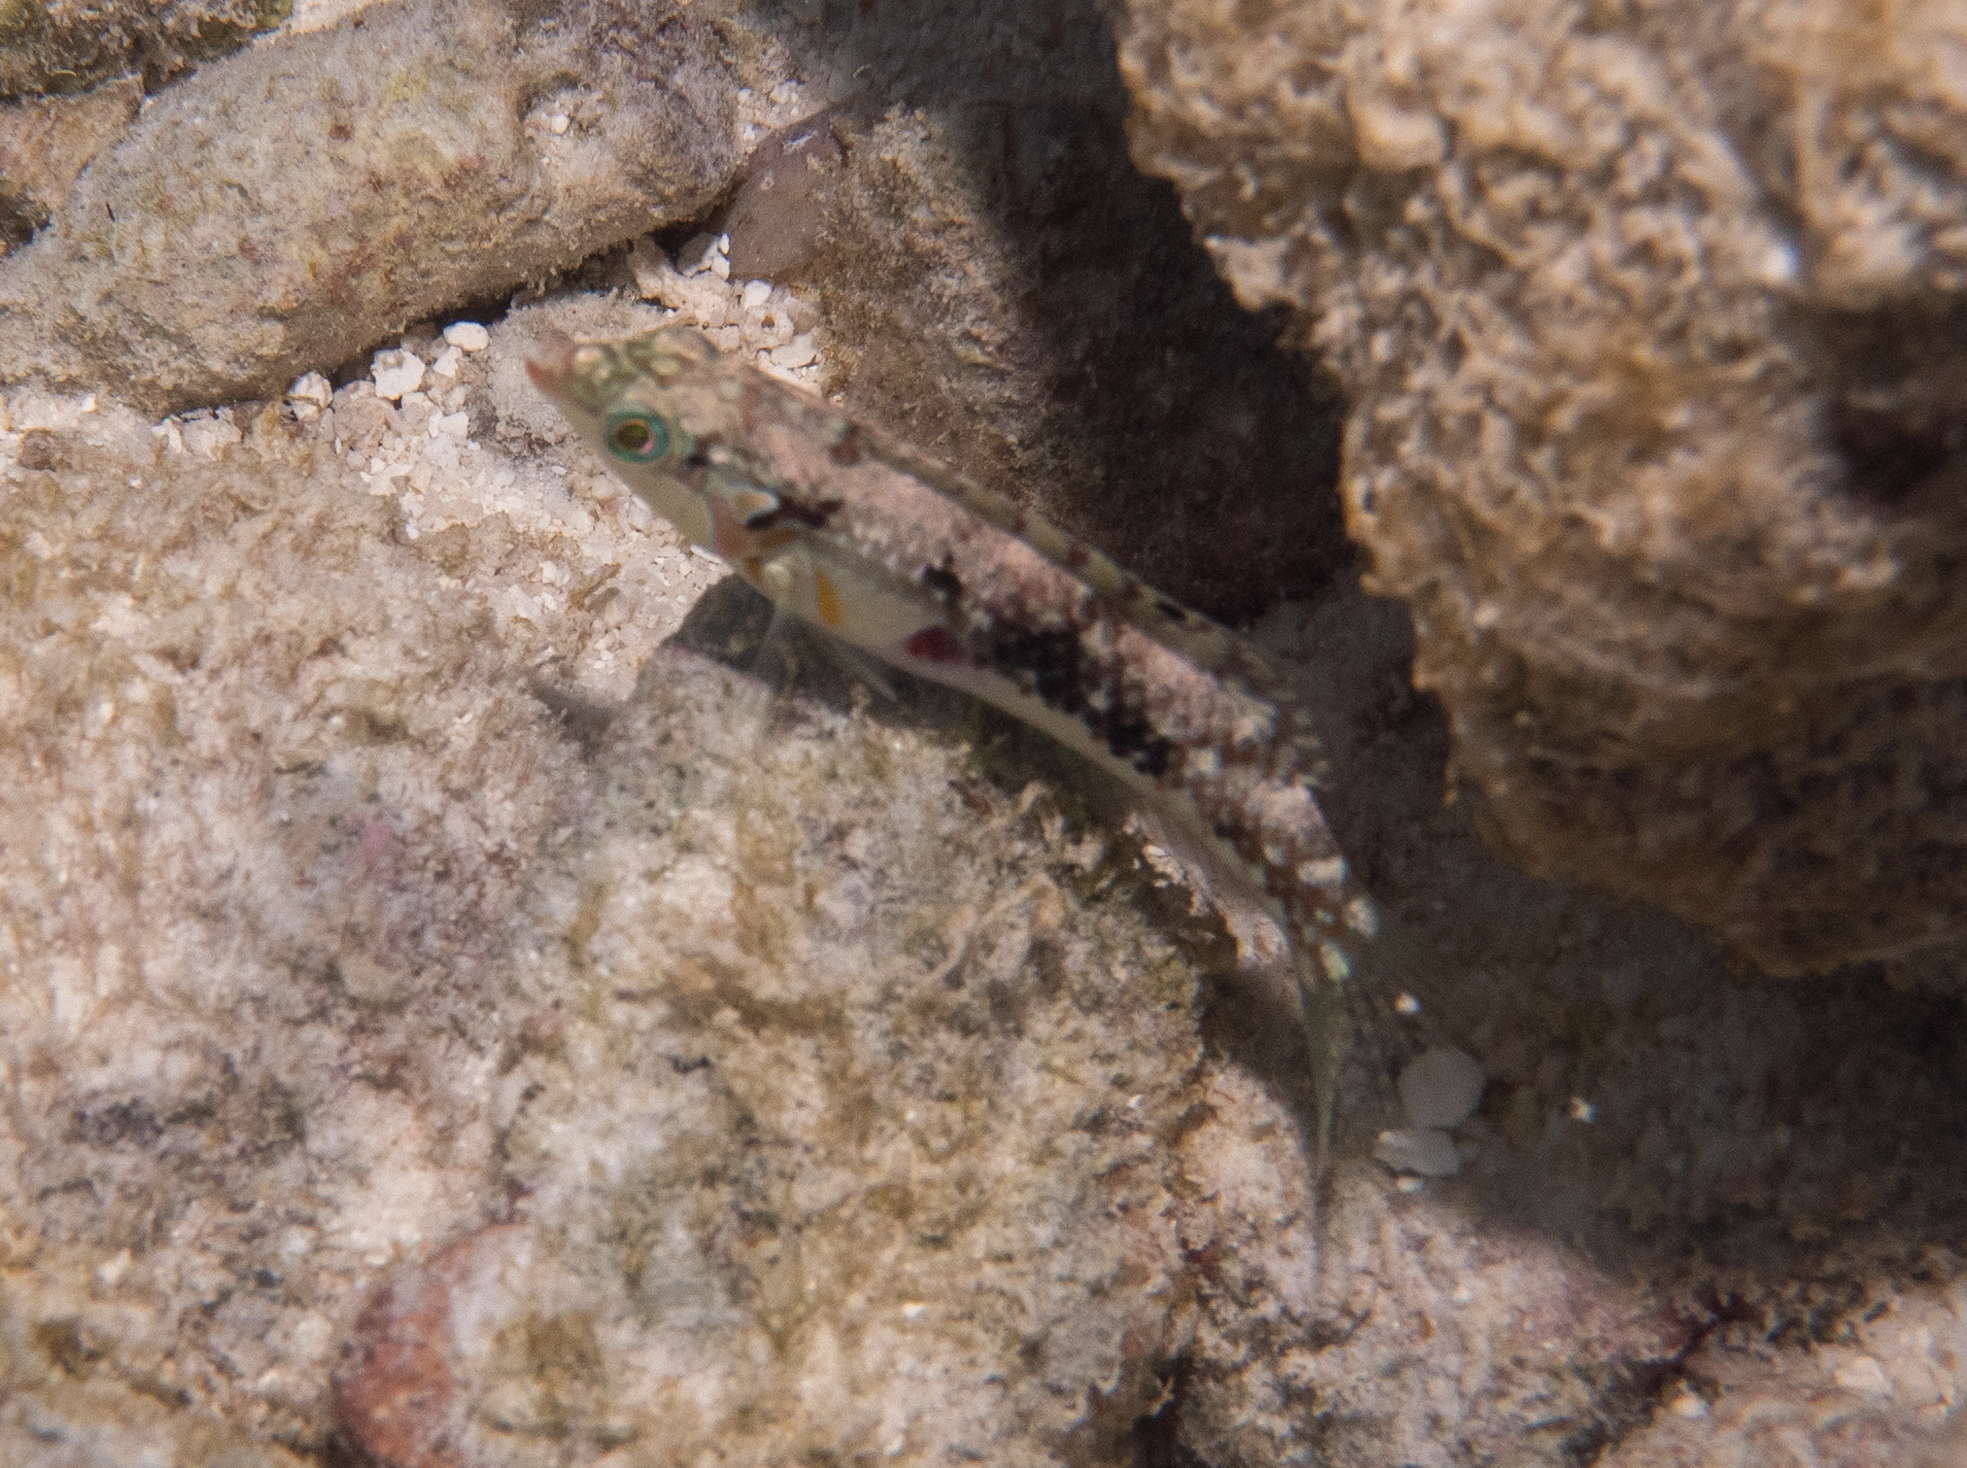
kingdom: Animalia
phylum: Chordata
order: Perciformes
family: Labridae
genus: Halichoeres
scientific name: Halichoeres nebulosus
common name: Clouded wrasse
